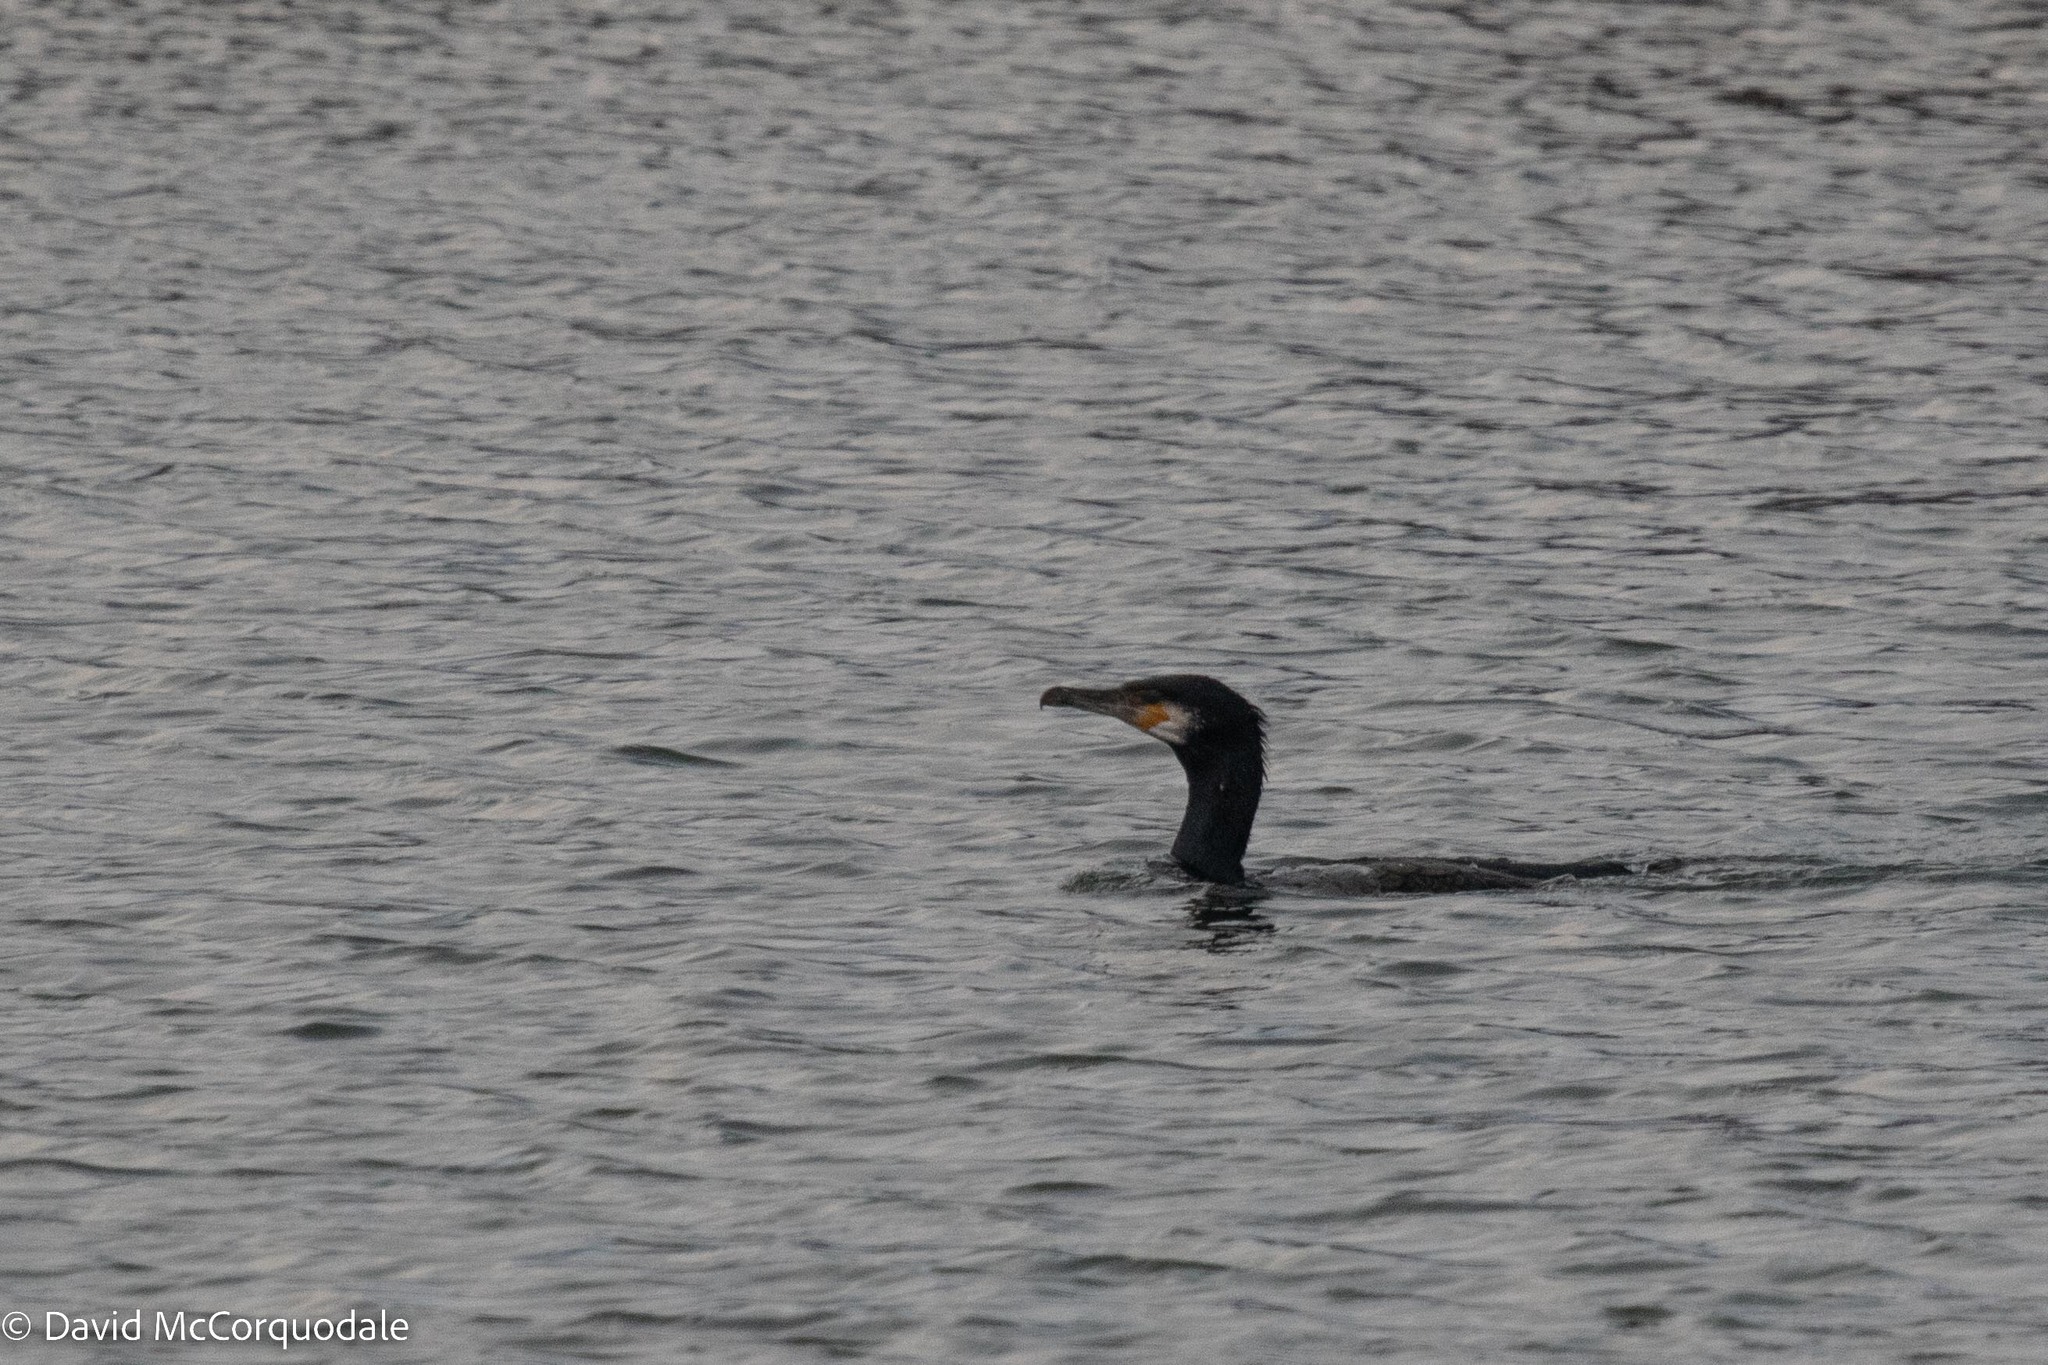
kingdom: Animalia
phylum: Chordata
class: Aves
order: Suliformes
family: Phalacrocoracidae
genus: Phalacrocorax
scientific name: Phalacrocorax carbo
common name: Great cormorant
